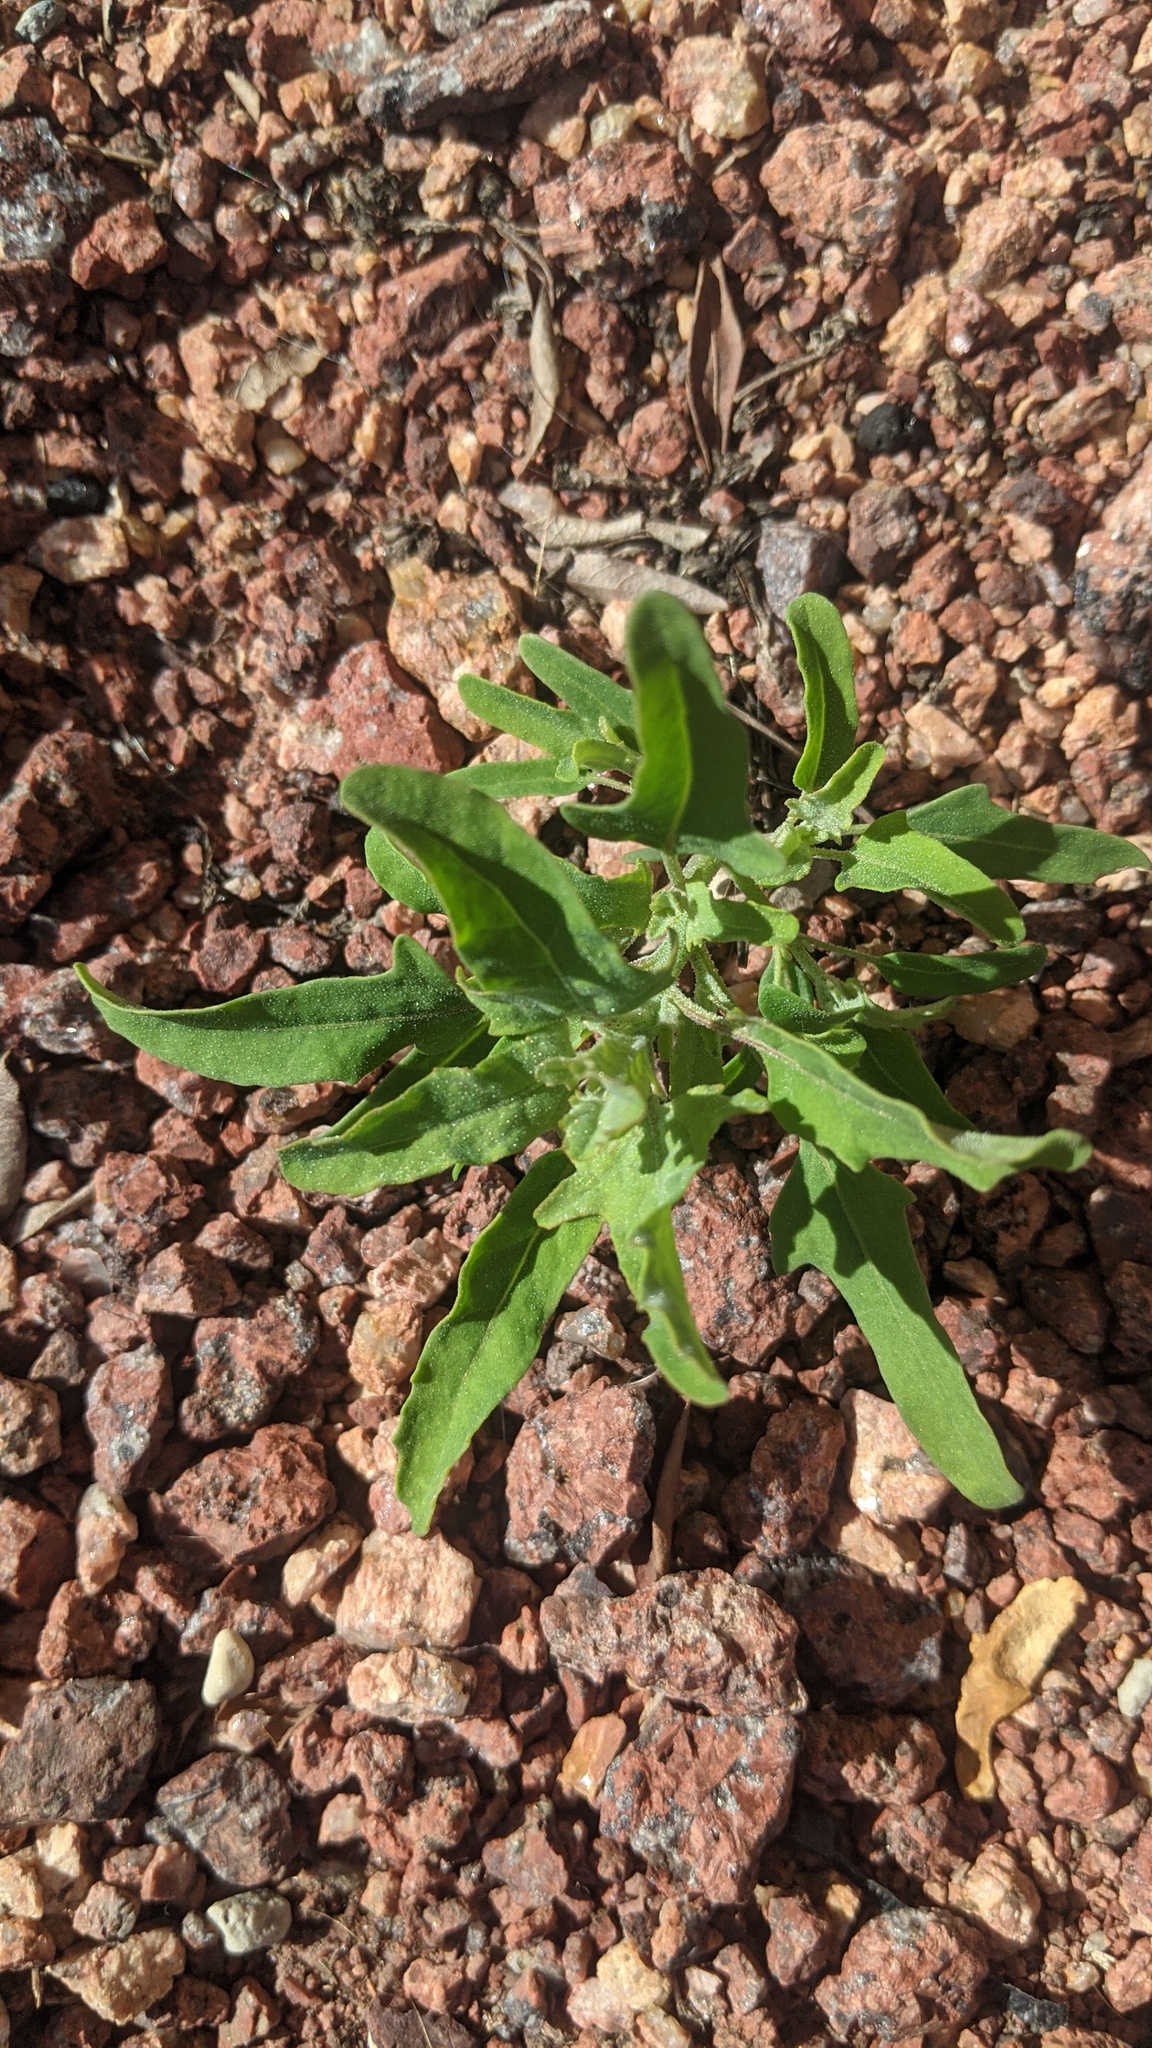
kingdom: Plantae
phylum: Tracheophyta
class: Magnoliopsida
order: Caryophyllales
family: Amaranthaceae
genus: Chenopodium
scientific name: Chenopodium album
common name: Fat-hen
